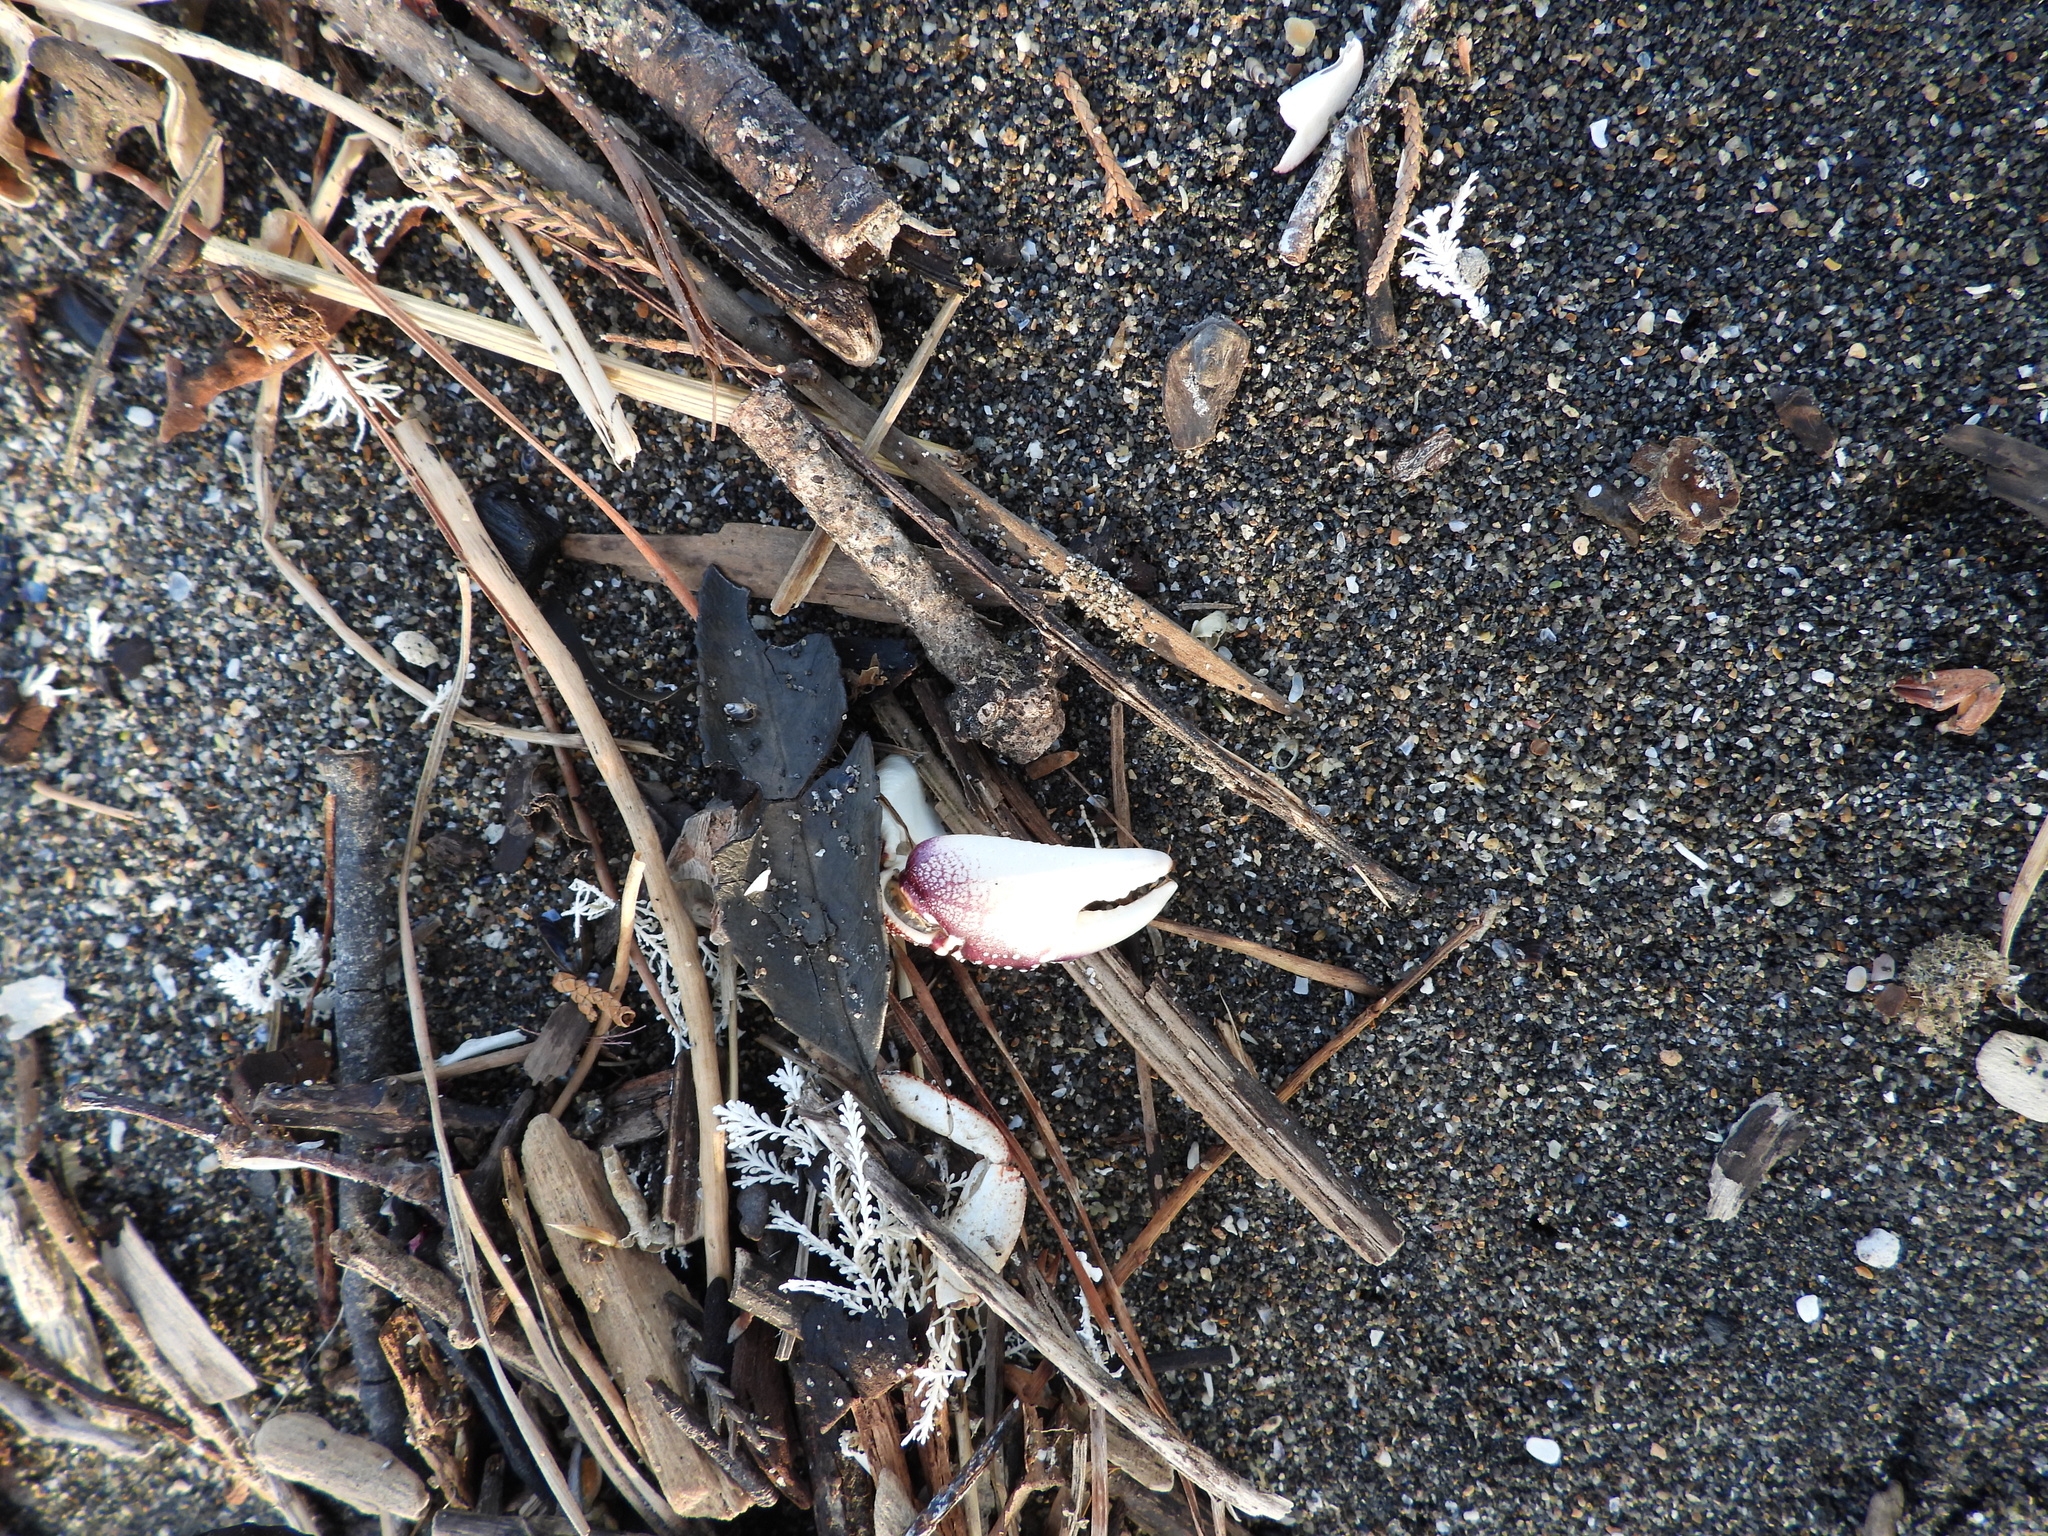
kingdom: Animalia
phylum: Arthropoda
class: Malacostraca
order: Decapoda
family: Grapsidae
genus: Leptograpsus
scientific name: Leptograpsus variegatus
